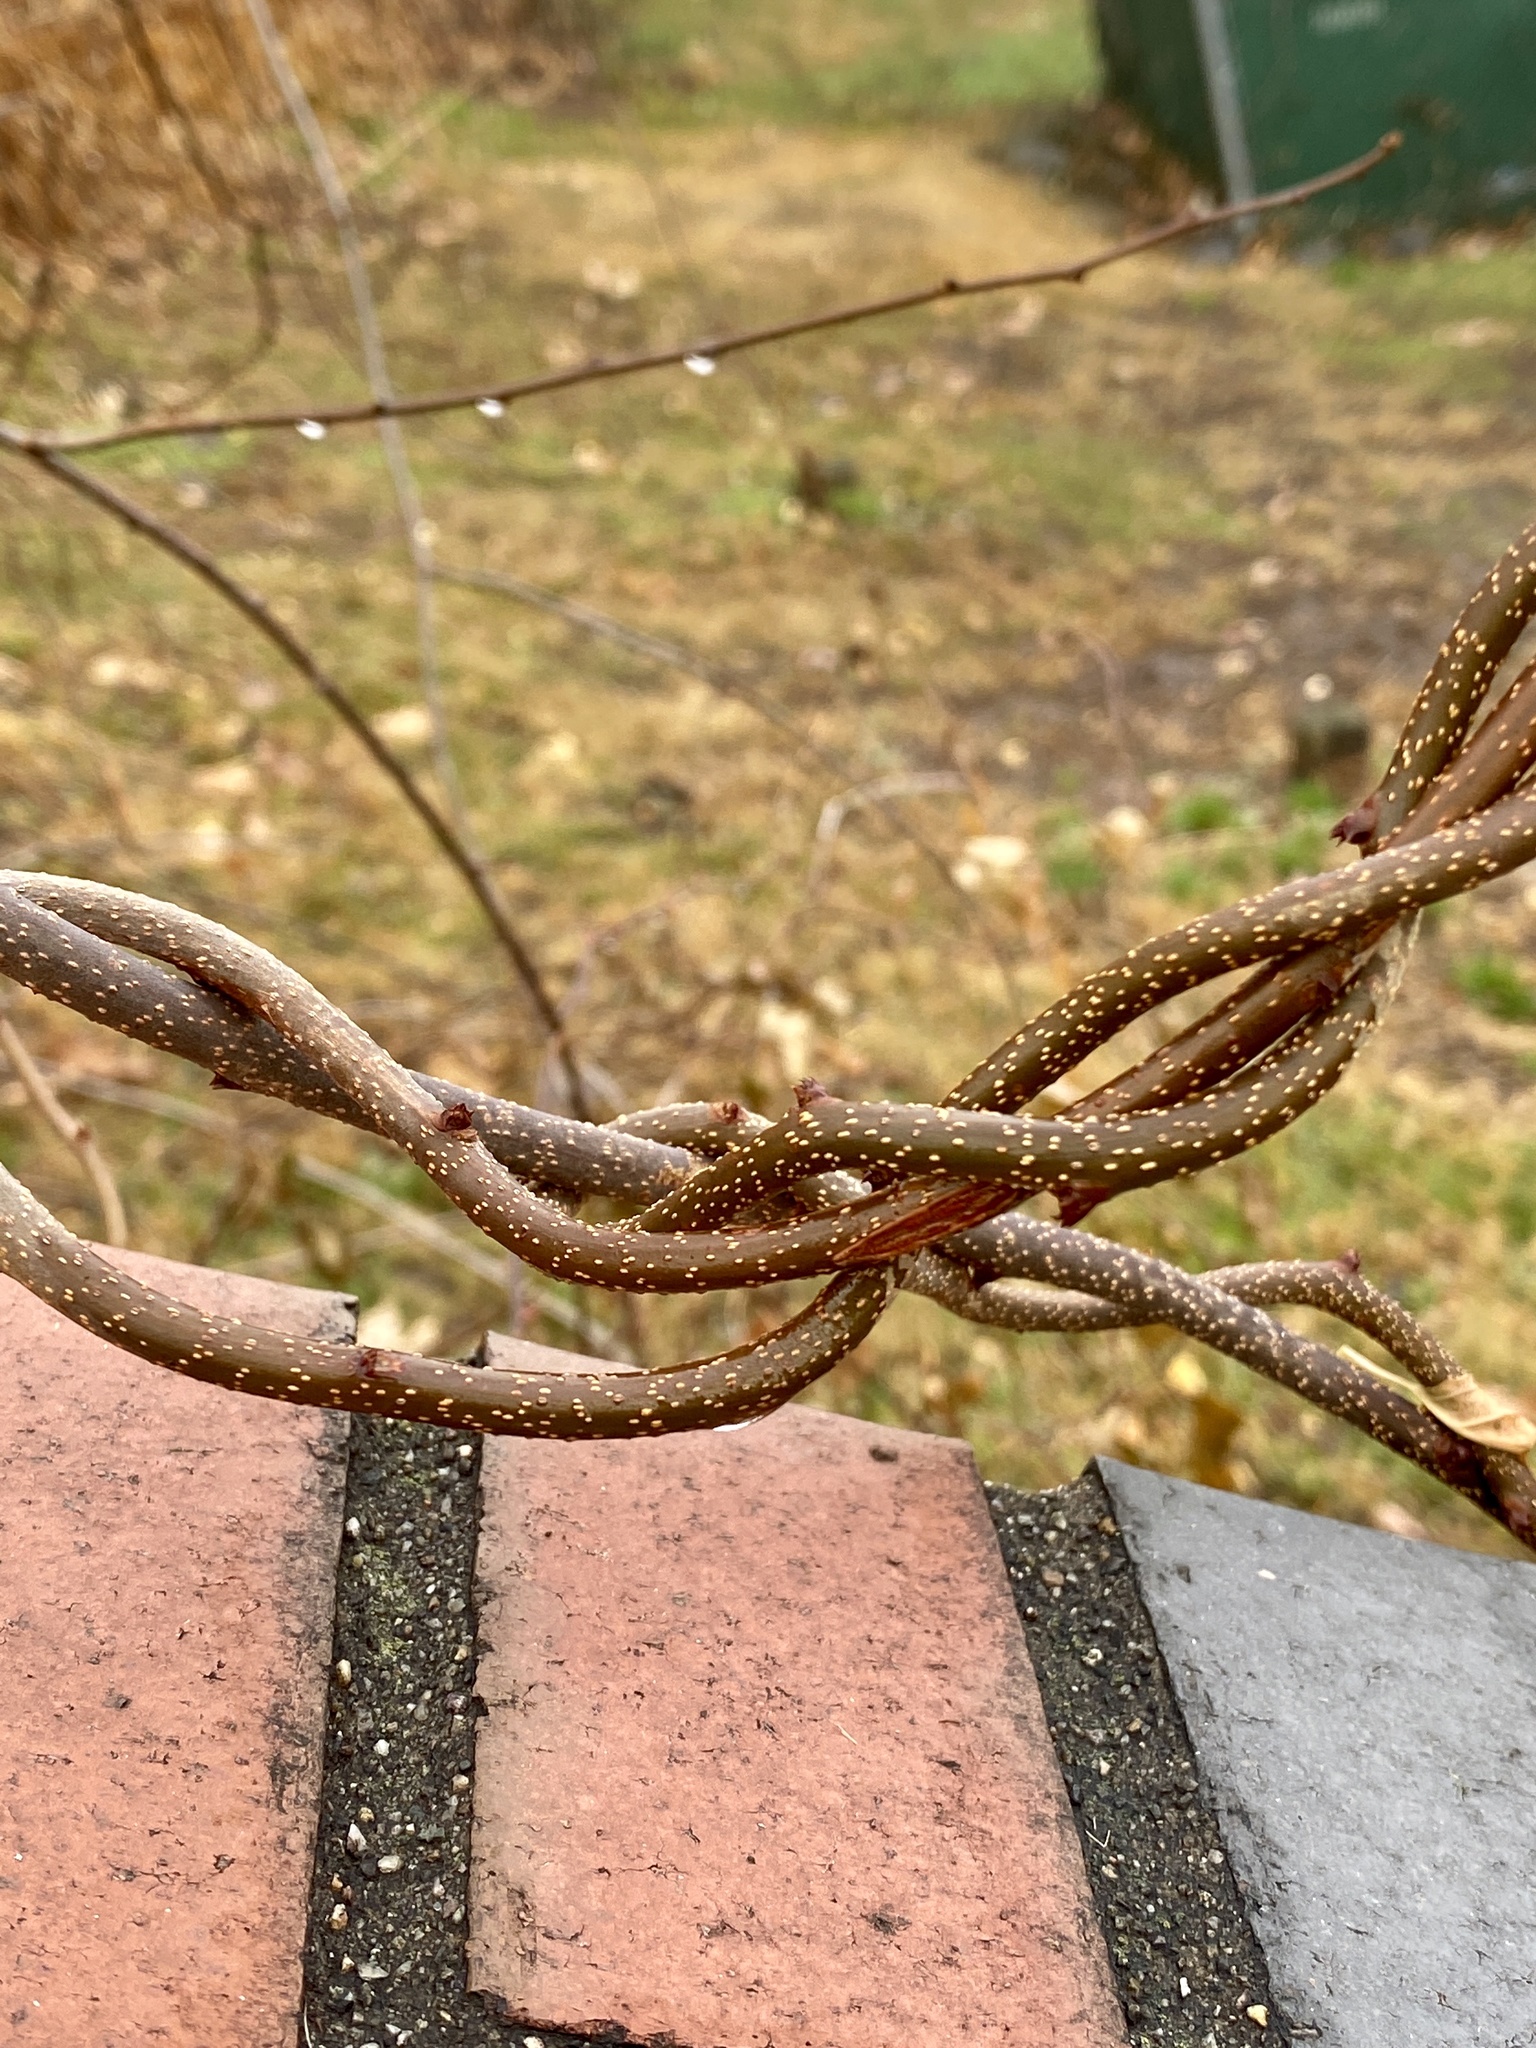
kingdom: Plantae
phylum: Tracheophyta
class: Magnoliopsida
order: Celastrales
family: Celastraceae
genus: Celastrus
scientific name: Celastrus orbiculatus
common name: Oriental bittersweet
